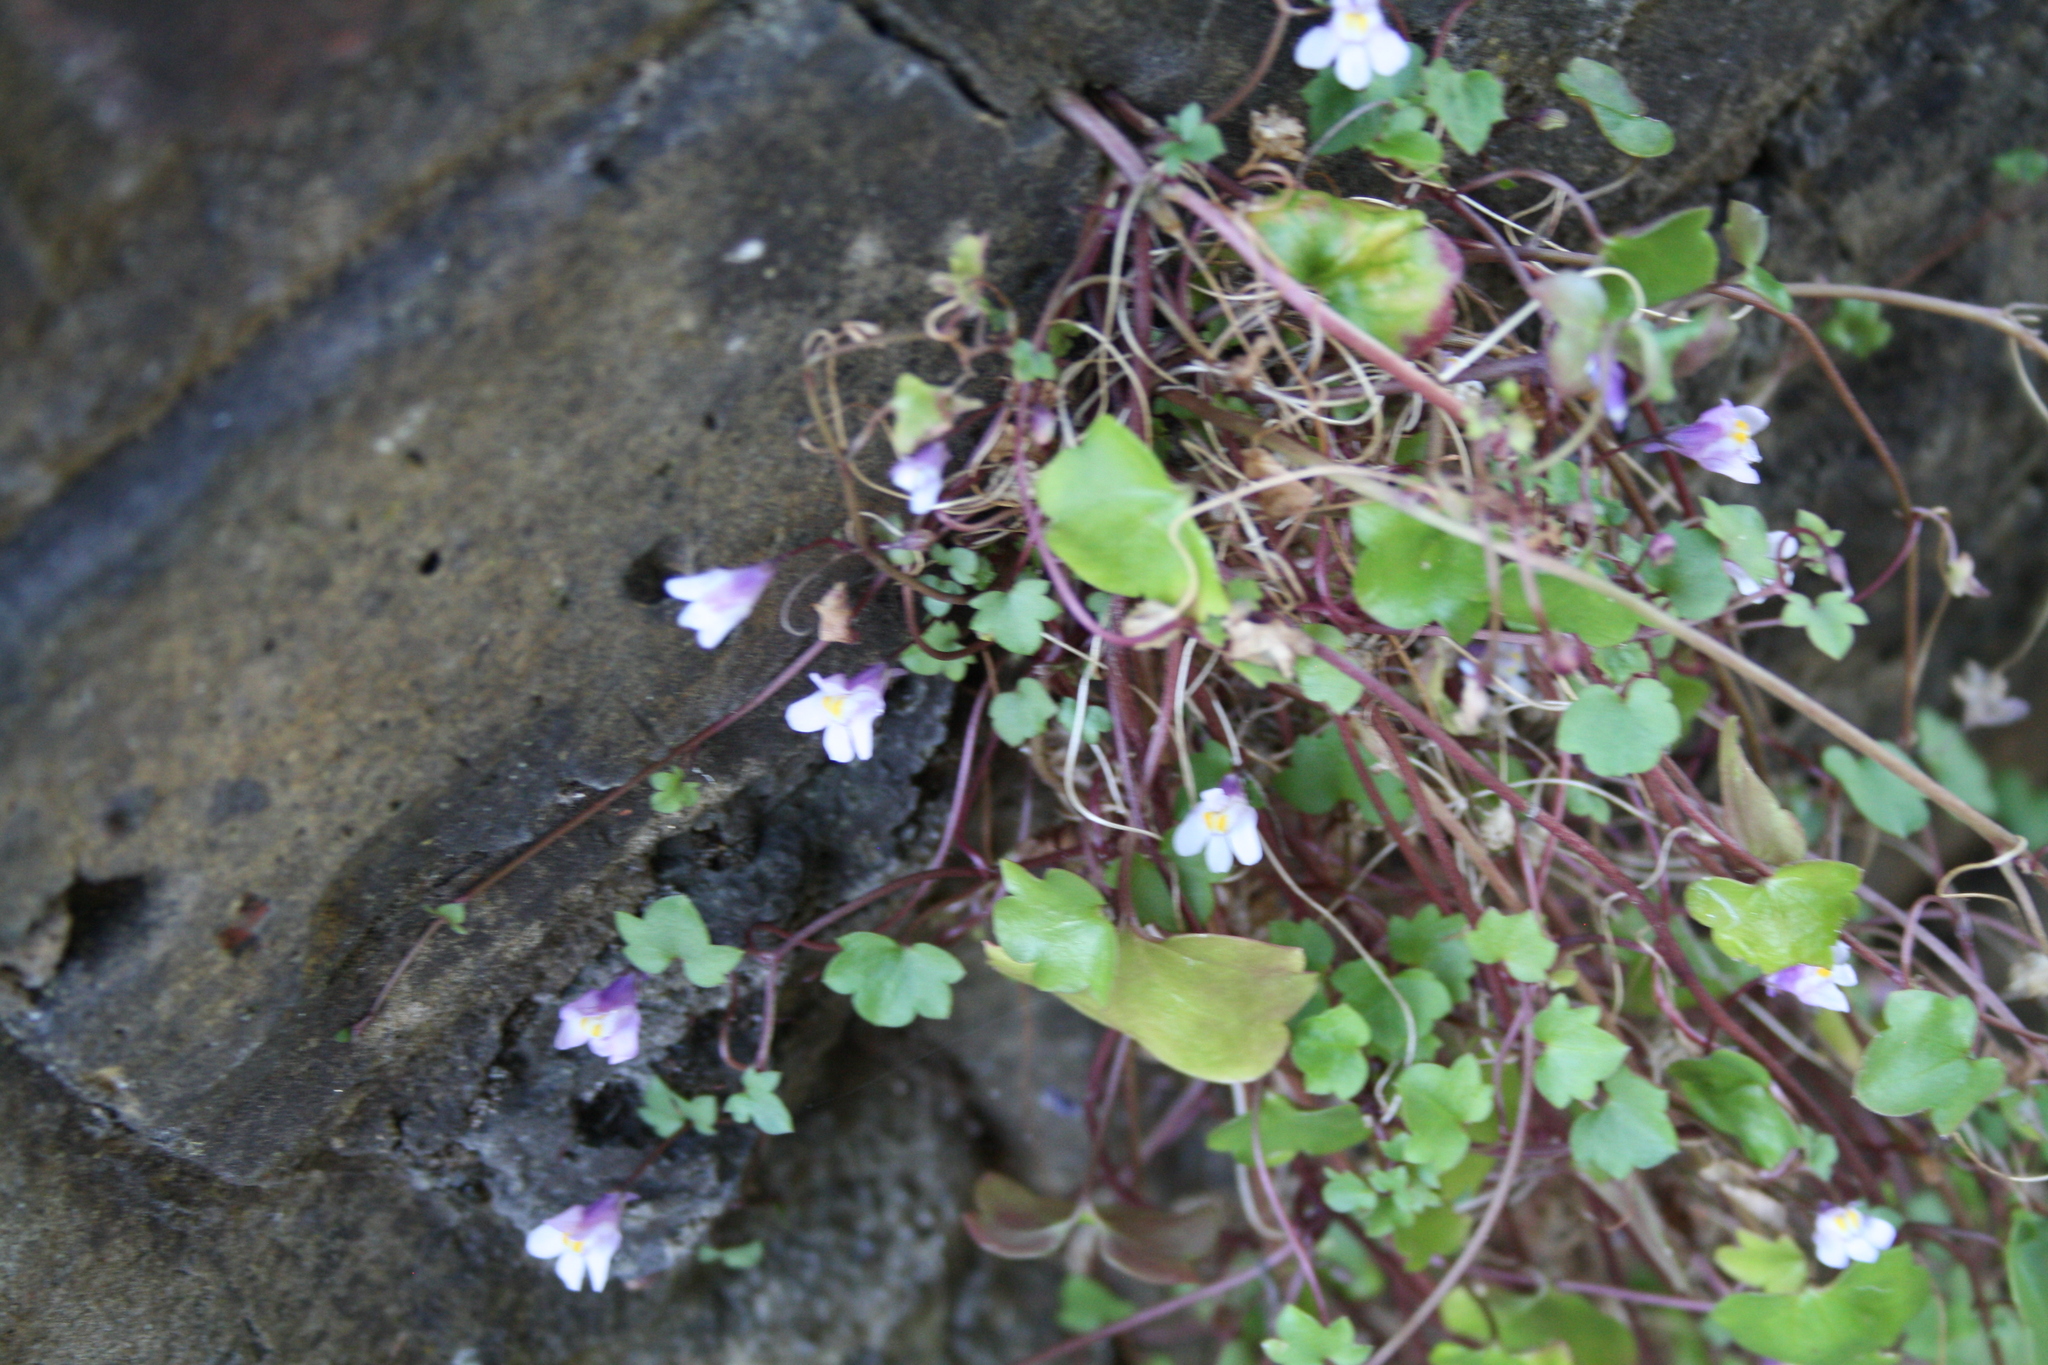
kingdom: Plantae
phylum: Tracheophyta
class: Magnoliopsida
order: Lamiales
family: Plantaginaceae
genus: Cymbalaria
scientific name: Cymbalaria muralis
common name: Ivy-leaved toadflax
